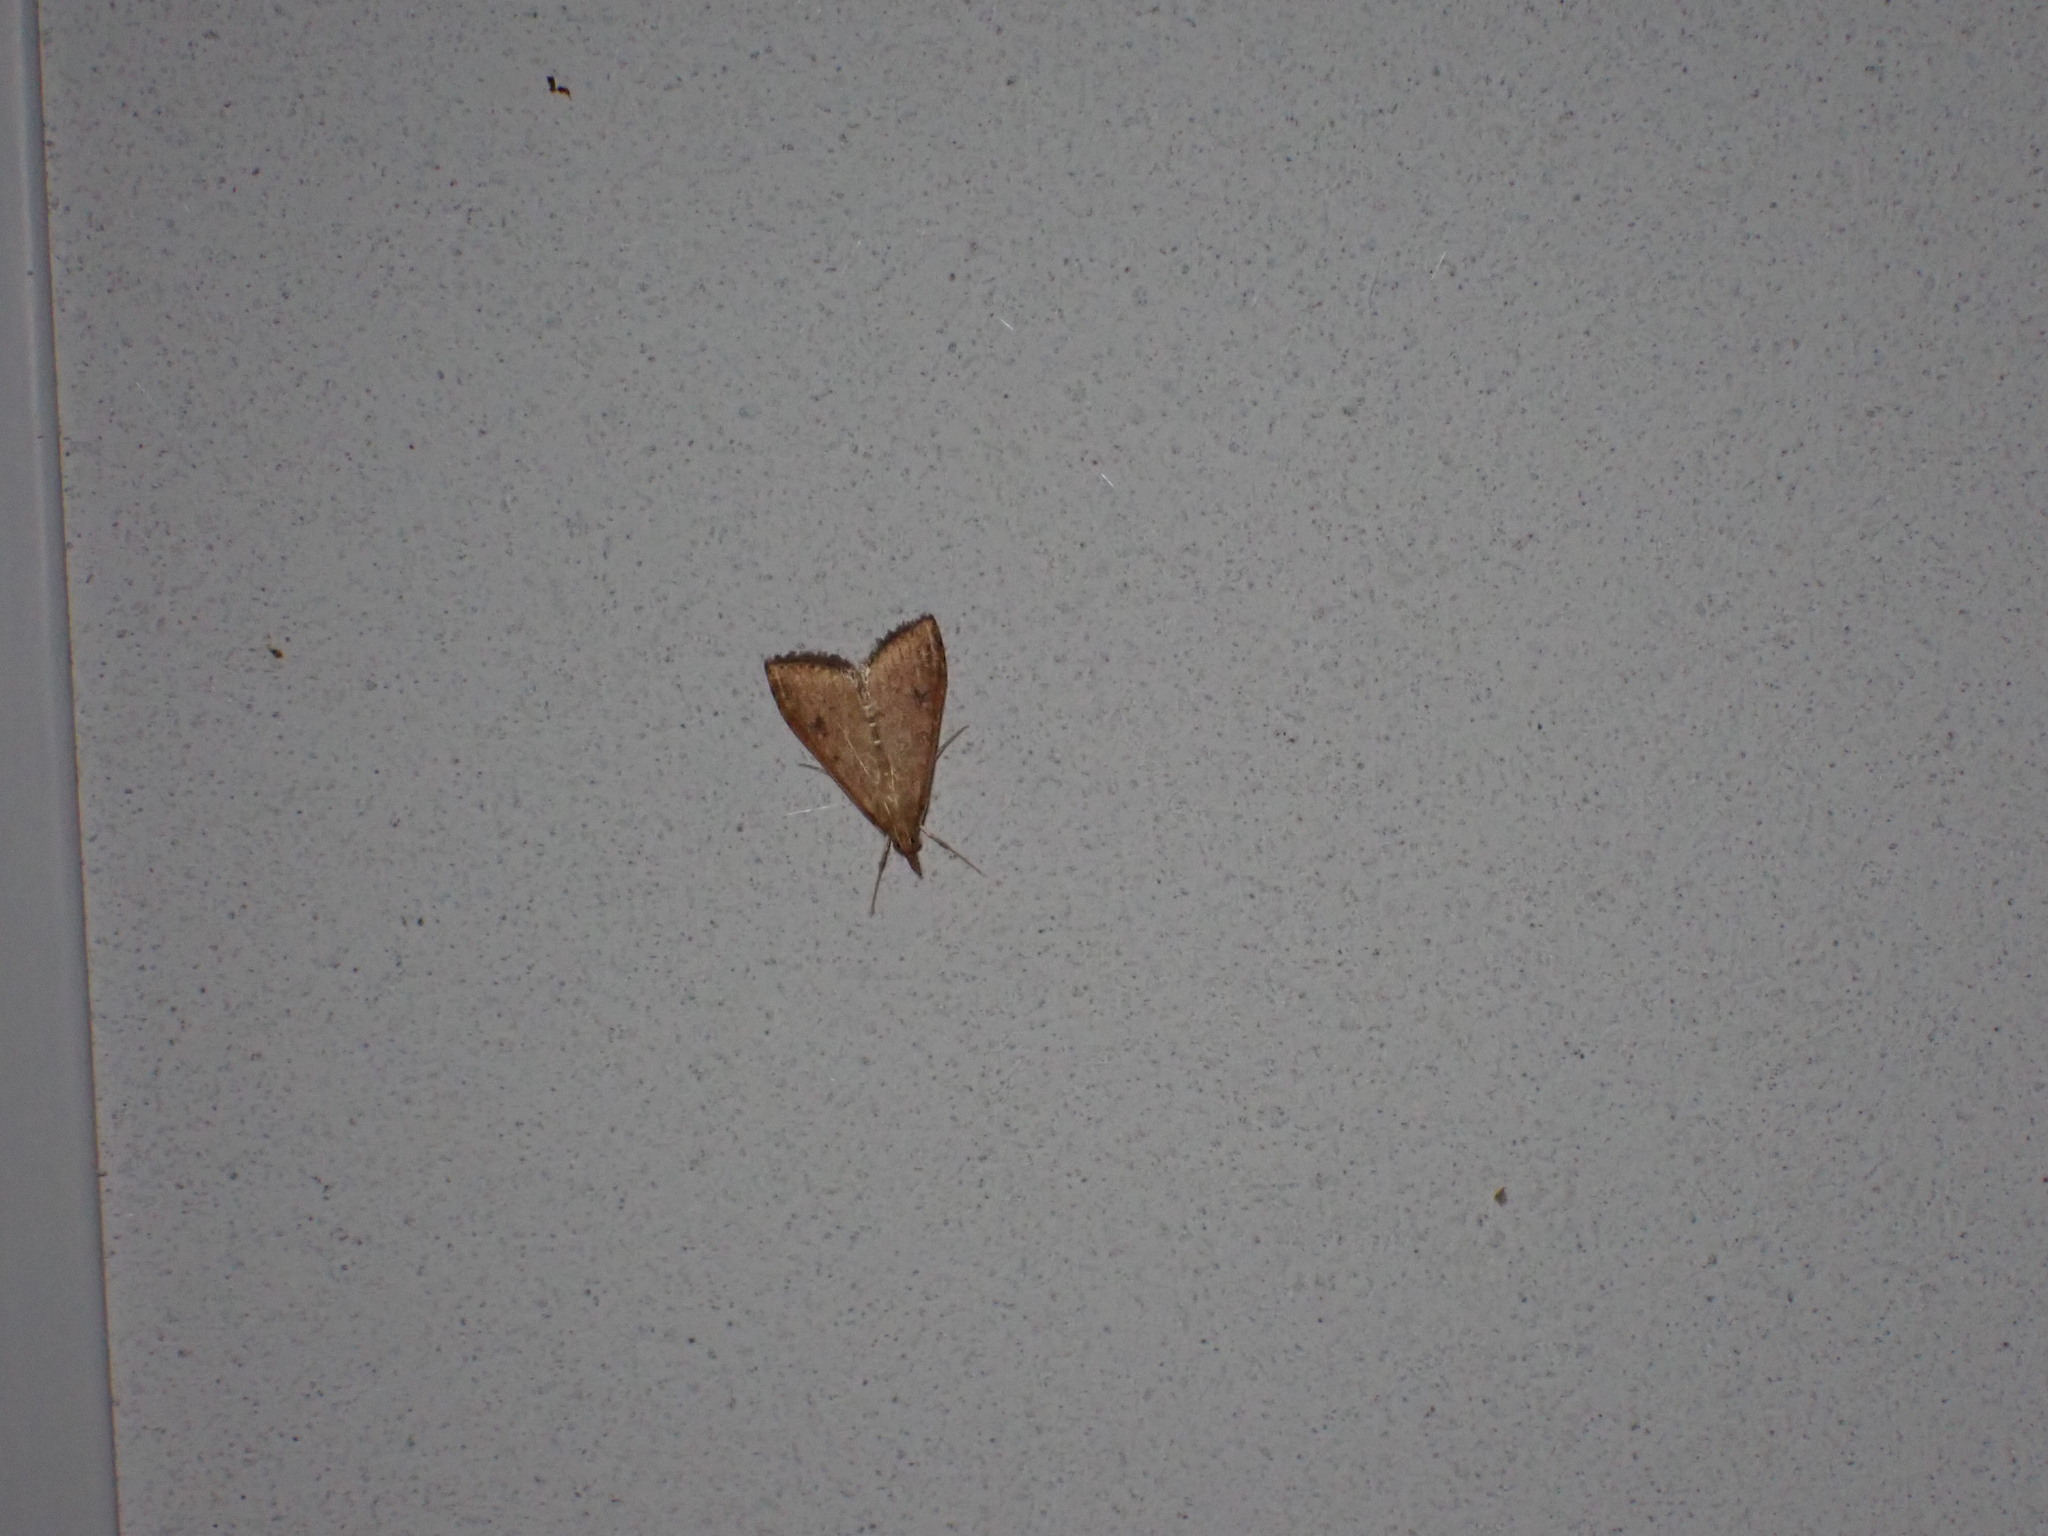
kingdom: Animalia
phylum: Arthropoda
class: Insecta
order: Lepidoptera
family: Crambidae
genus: Udea
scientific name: Udea ferrugalis
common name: Rusty dot
